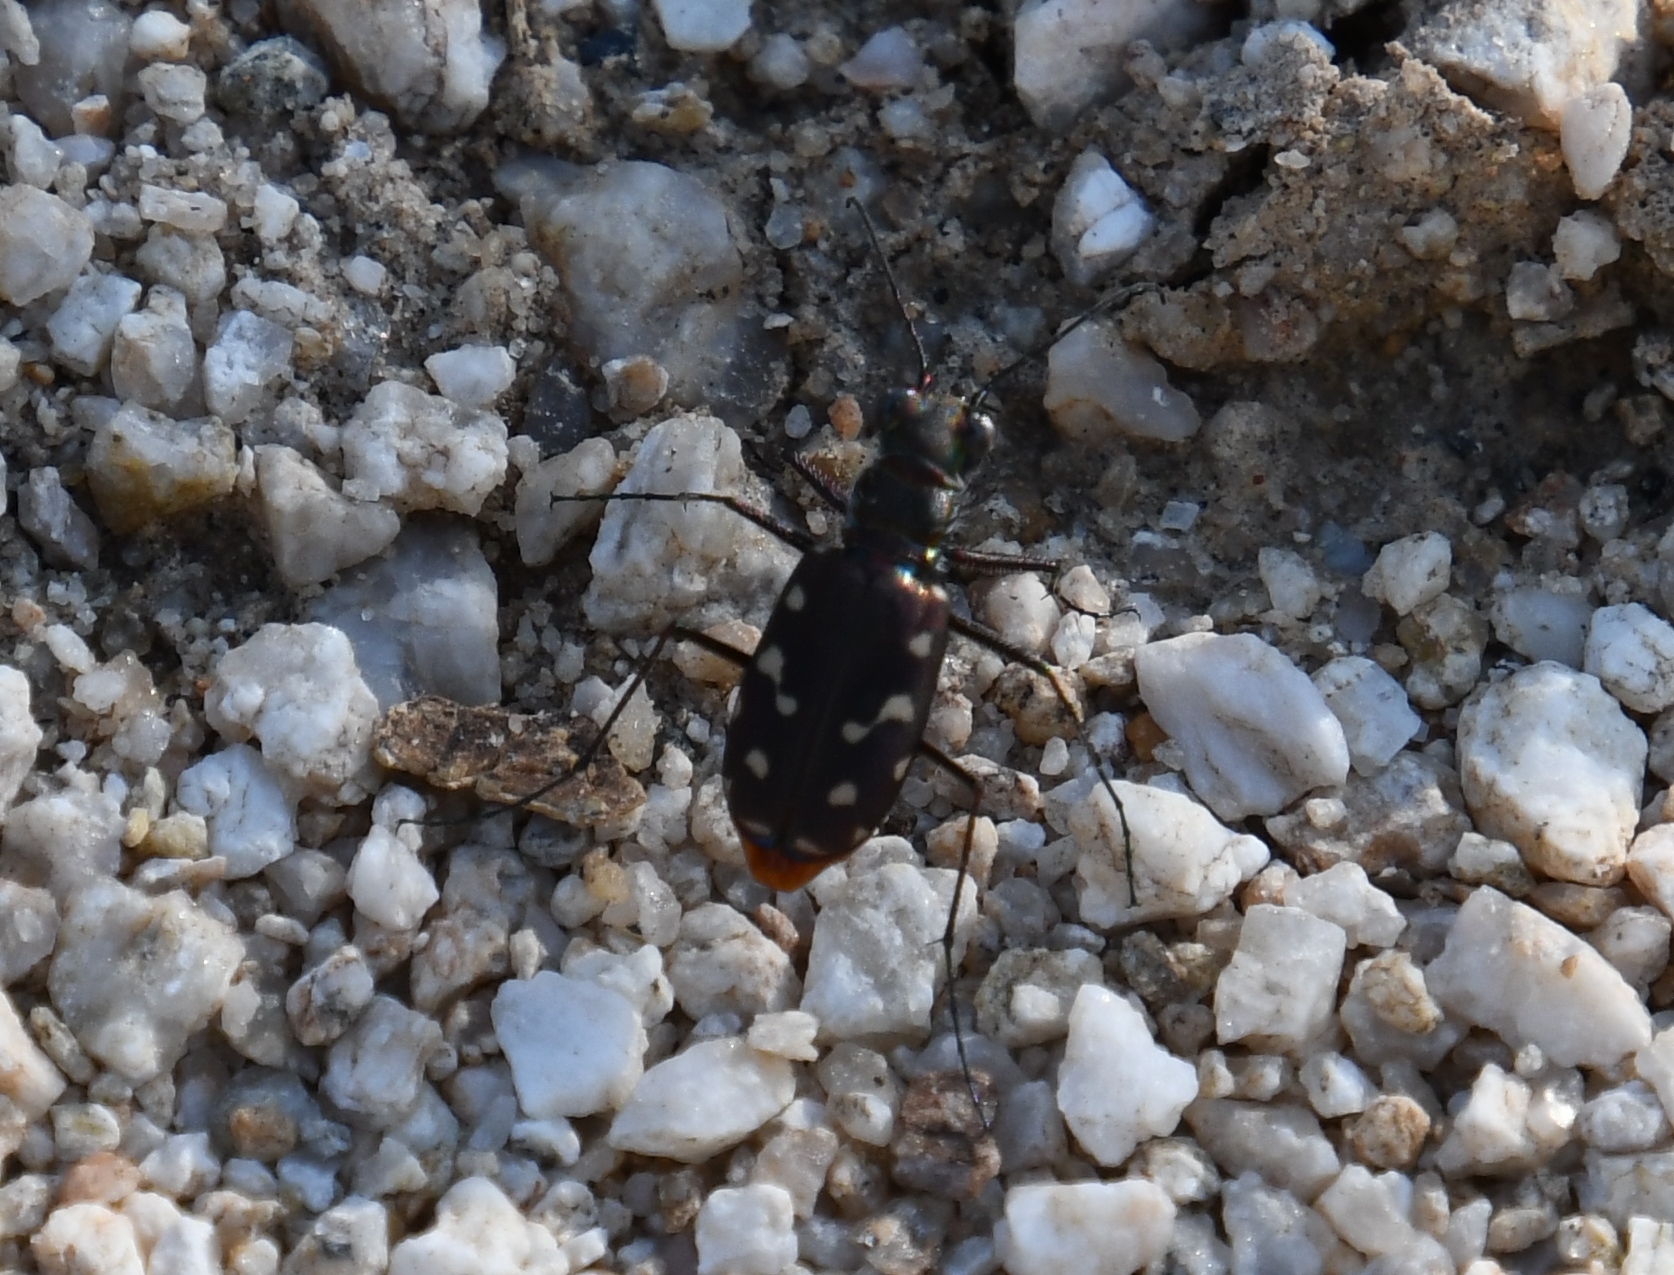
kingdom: Animalia
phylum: Arthropoda
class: Insecta
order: Coleoptera
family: Carabidae
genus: Cicindela
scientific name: Cicindela sedecimpunctata
